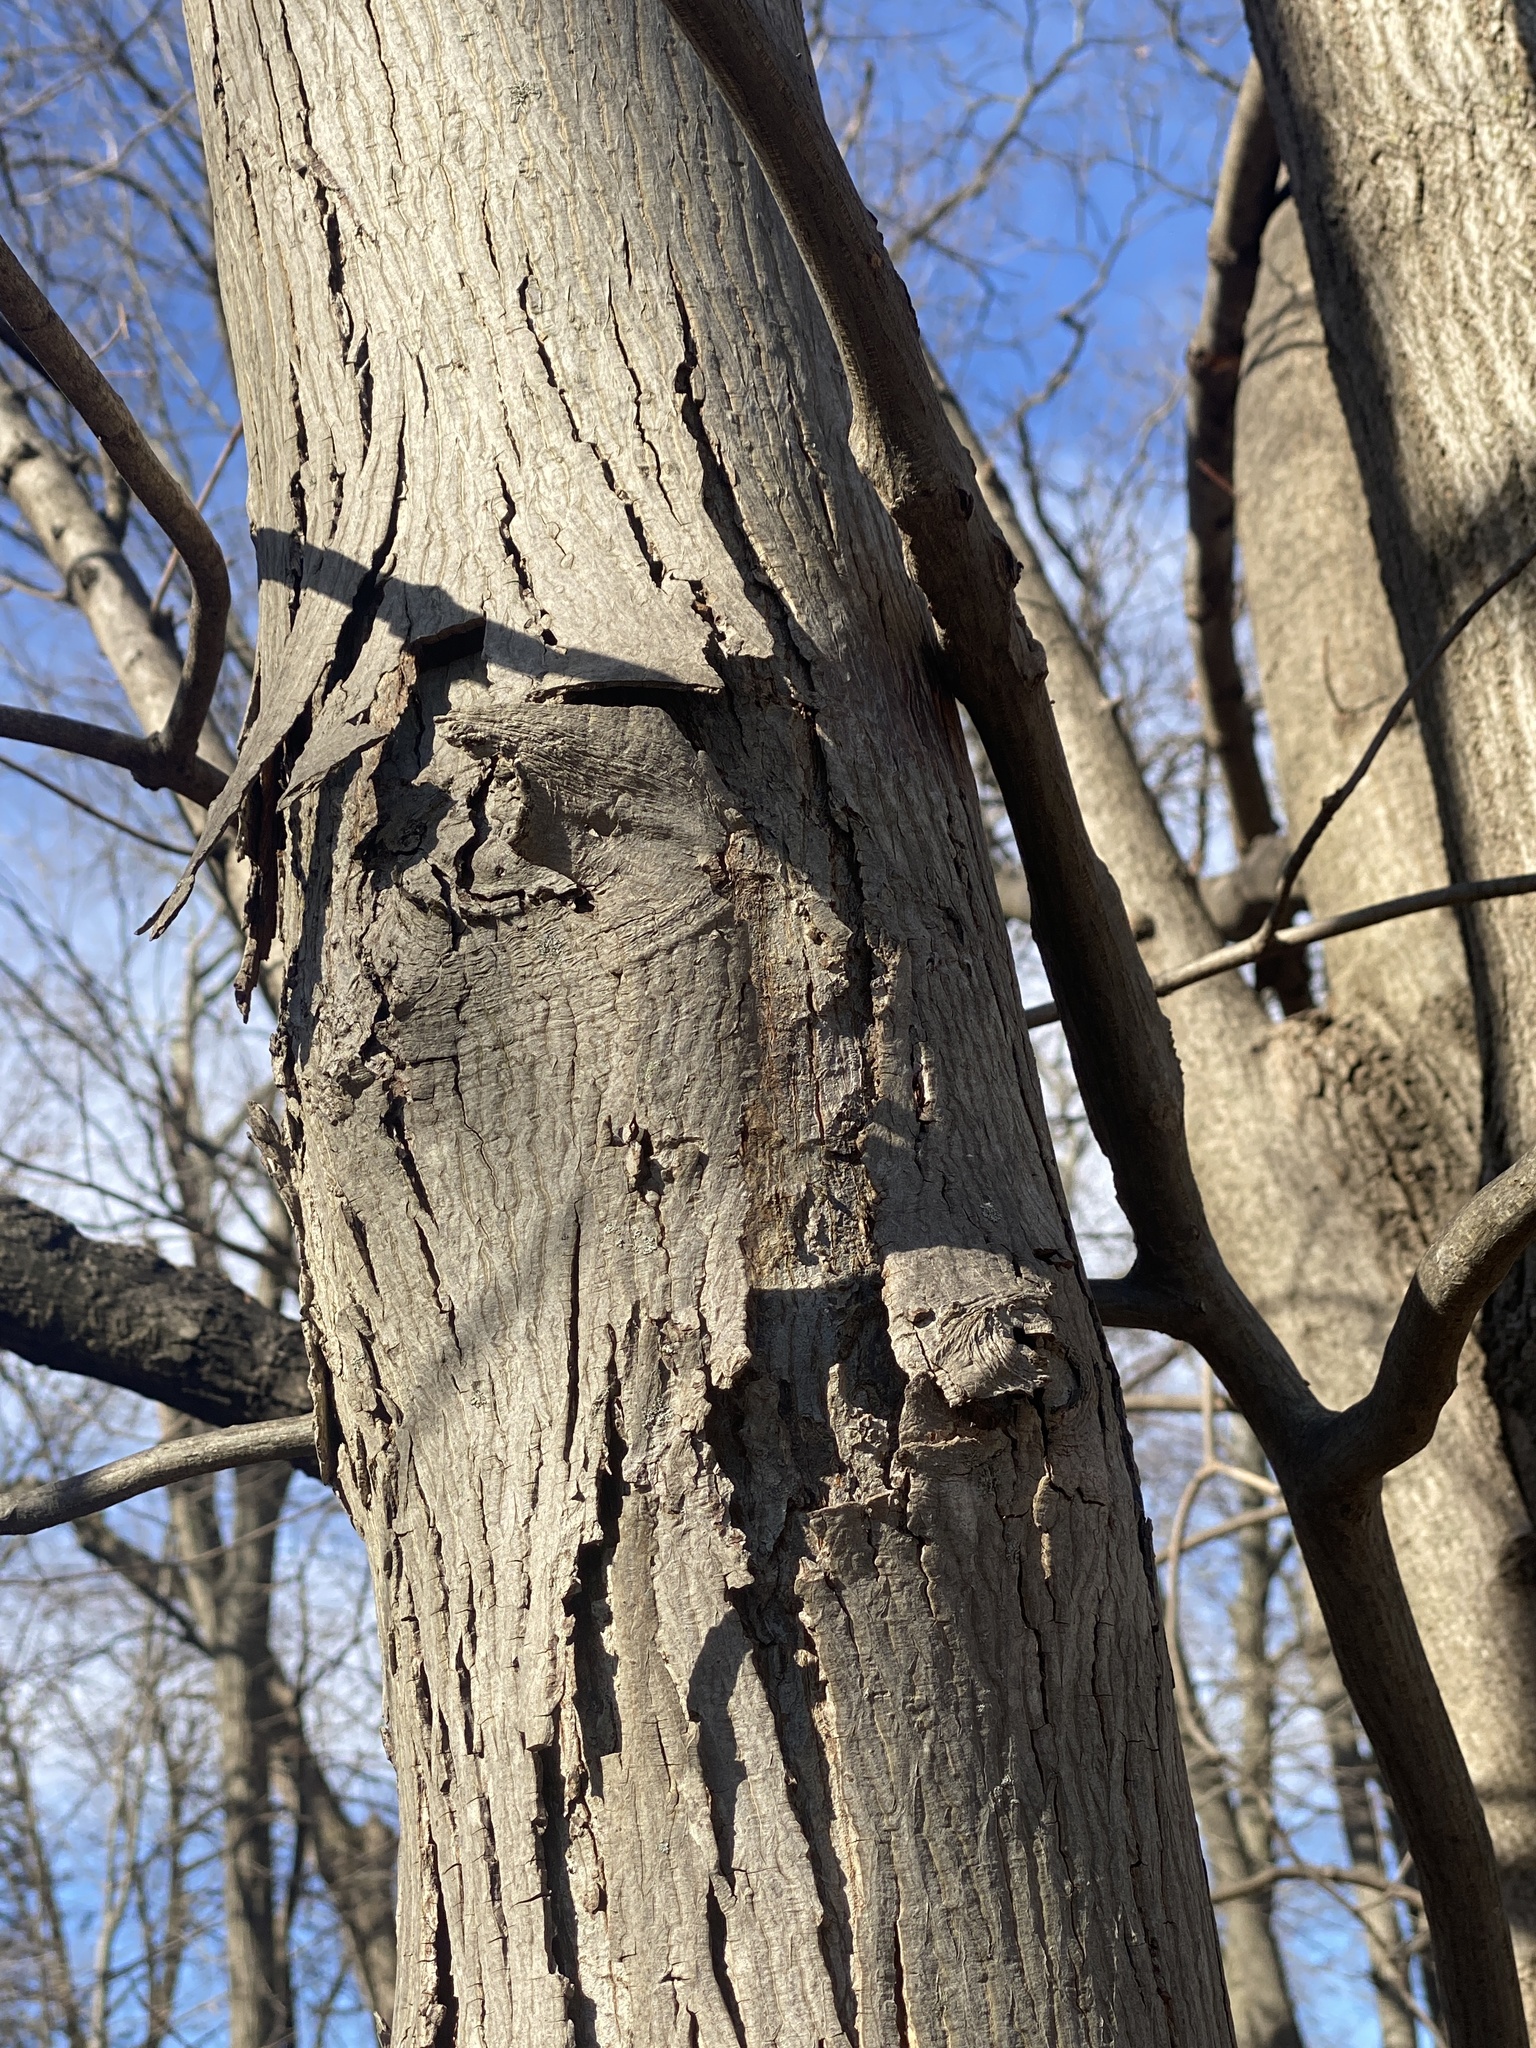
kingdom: Plantae
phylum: Tracheophyta
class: Magnoliopsida
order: Fagales
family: Juglandaceae
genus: Carya
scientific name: Carya ovata
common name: Shagbark hickory
